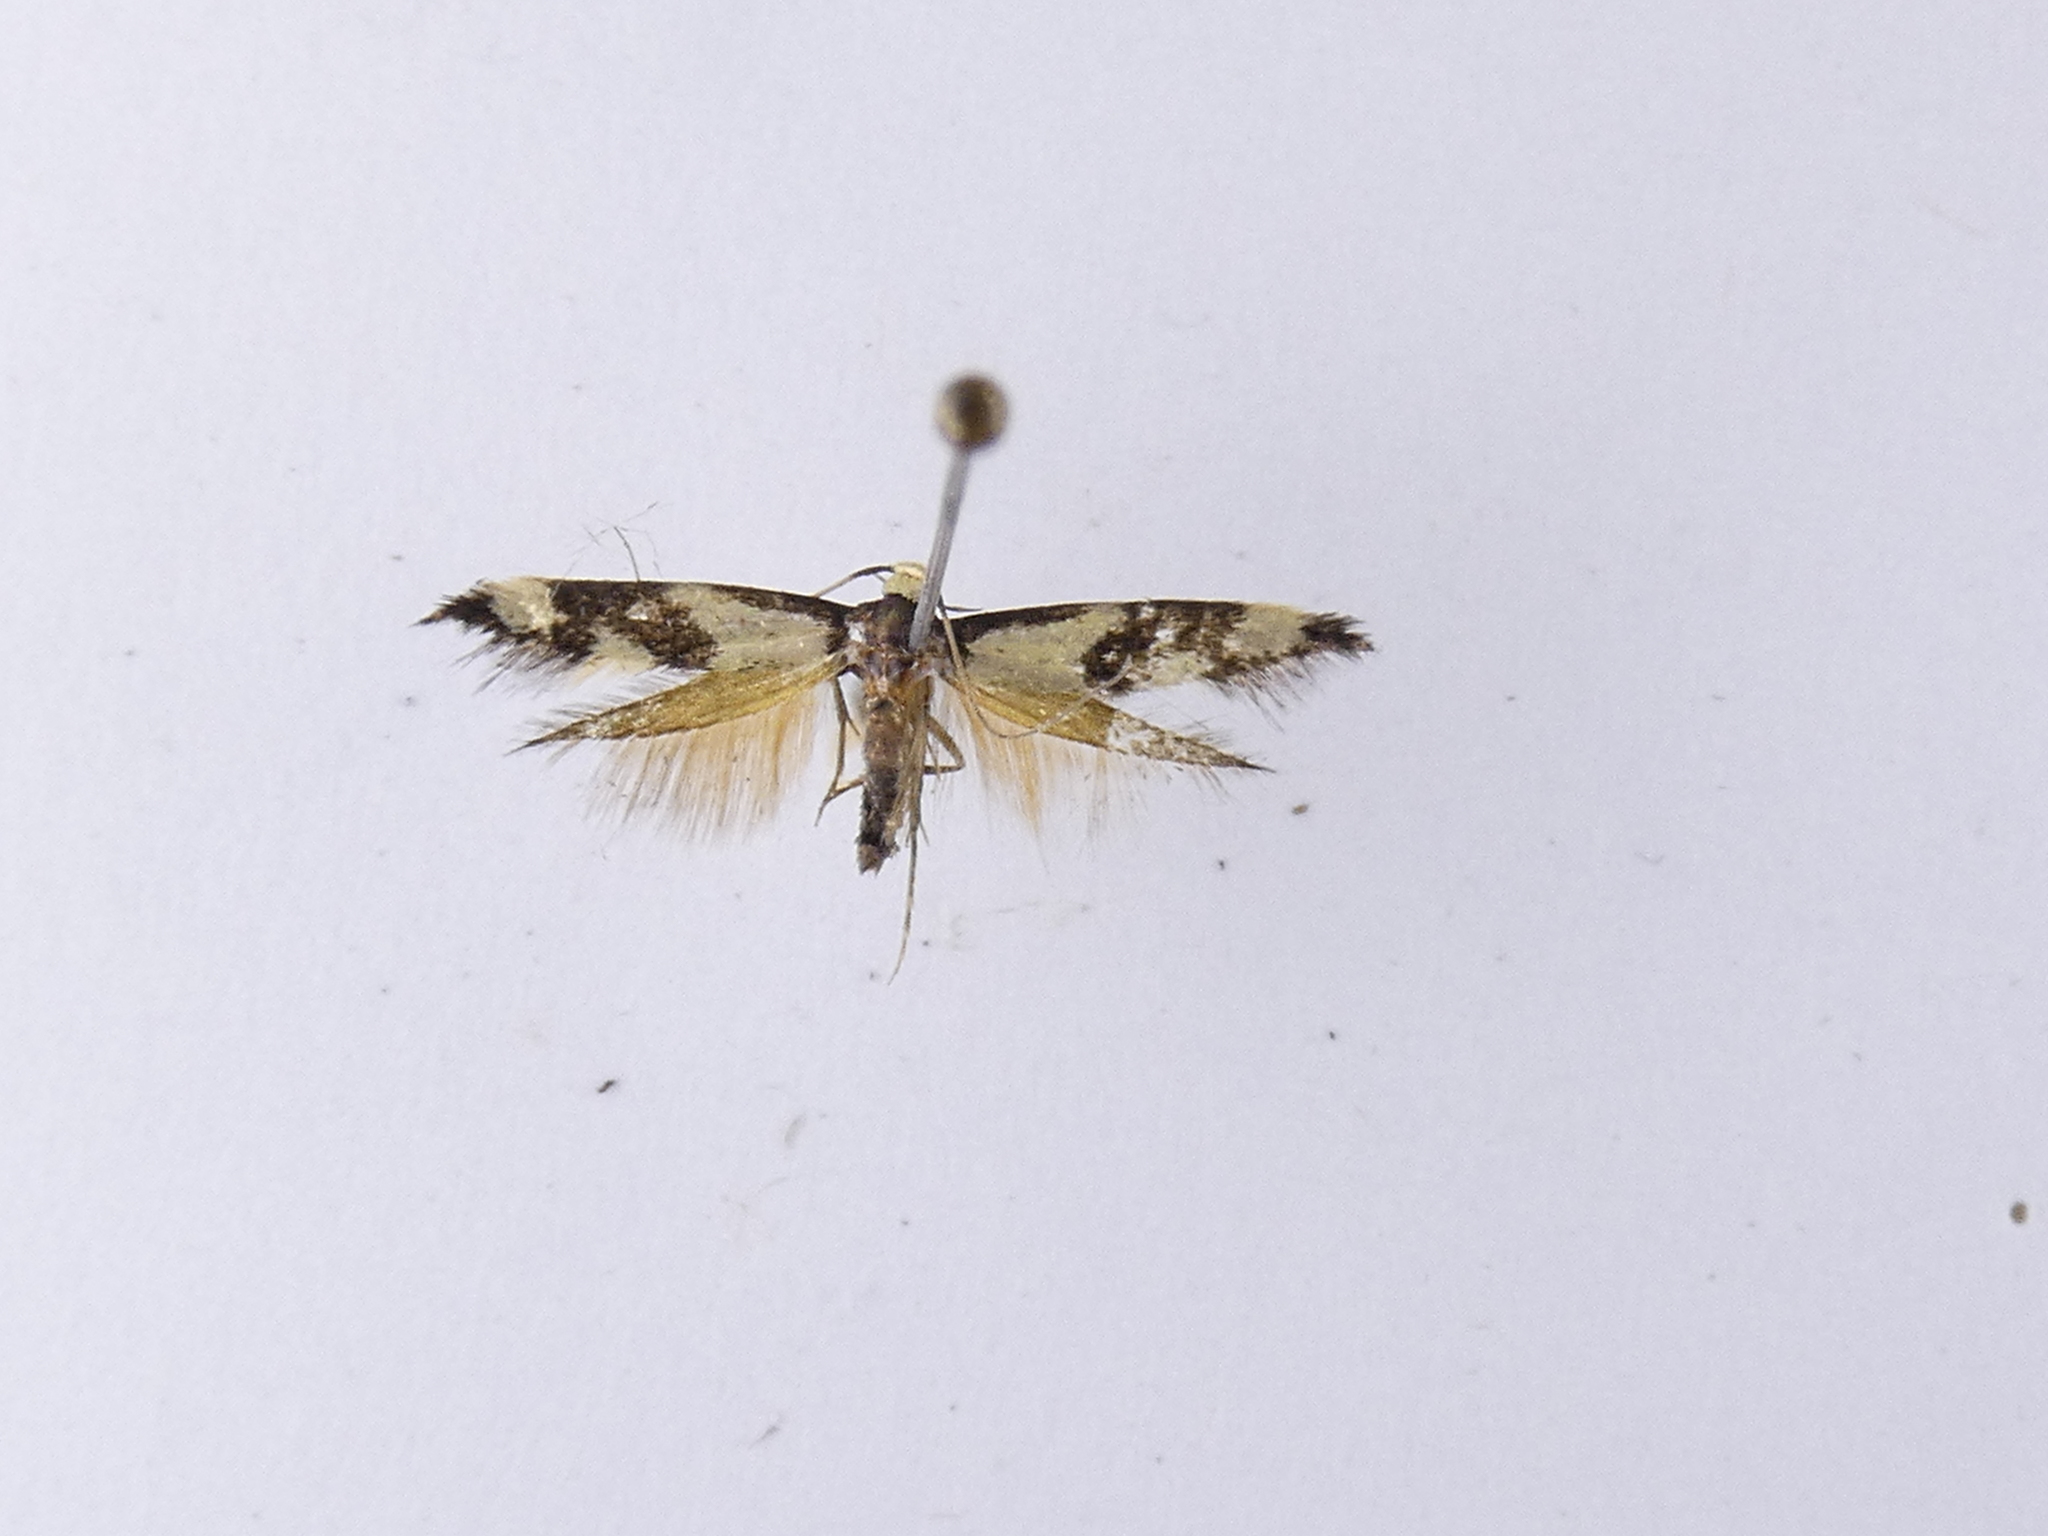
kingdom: Animalia
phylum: Arthropoda
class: Insecta
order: Lepidoptera
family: Tineidae
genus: Opogona
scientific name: Opogona comptella
